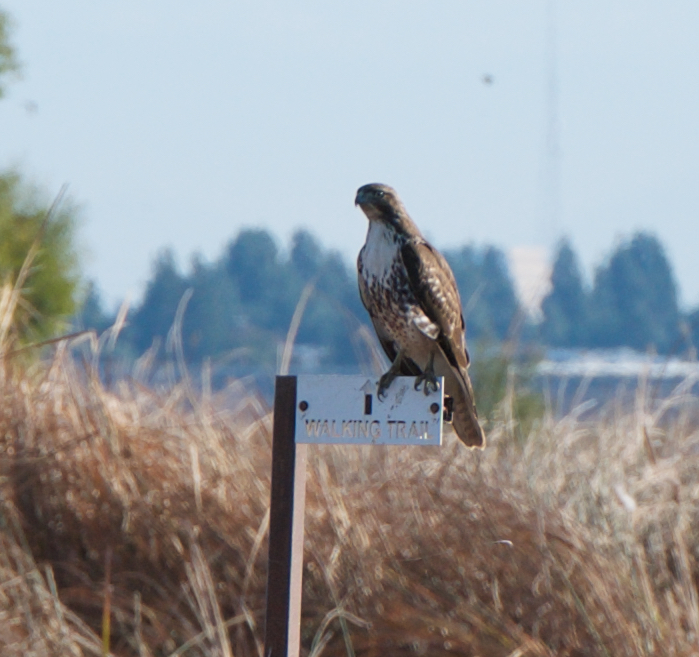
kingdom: Animalia
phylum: Chordata
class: Aves
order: Accipitriformes
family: Accipitridae
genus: Buteo
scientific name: Buteo jamaicensis
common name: Red-tailed hawk
